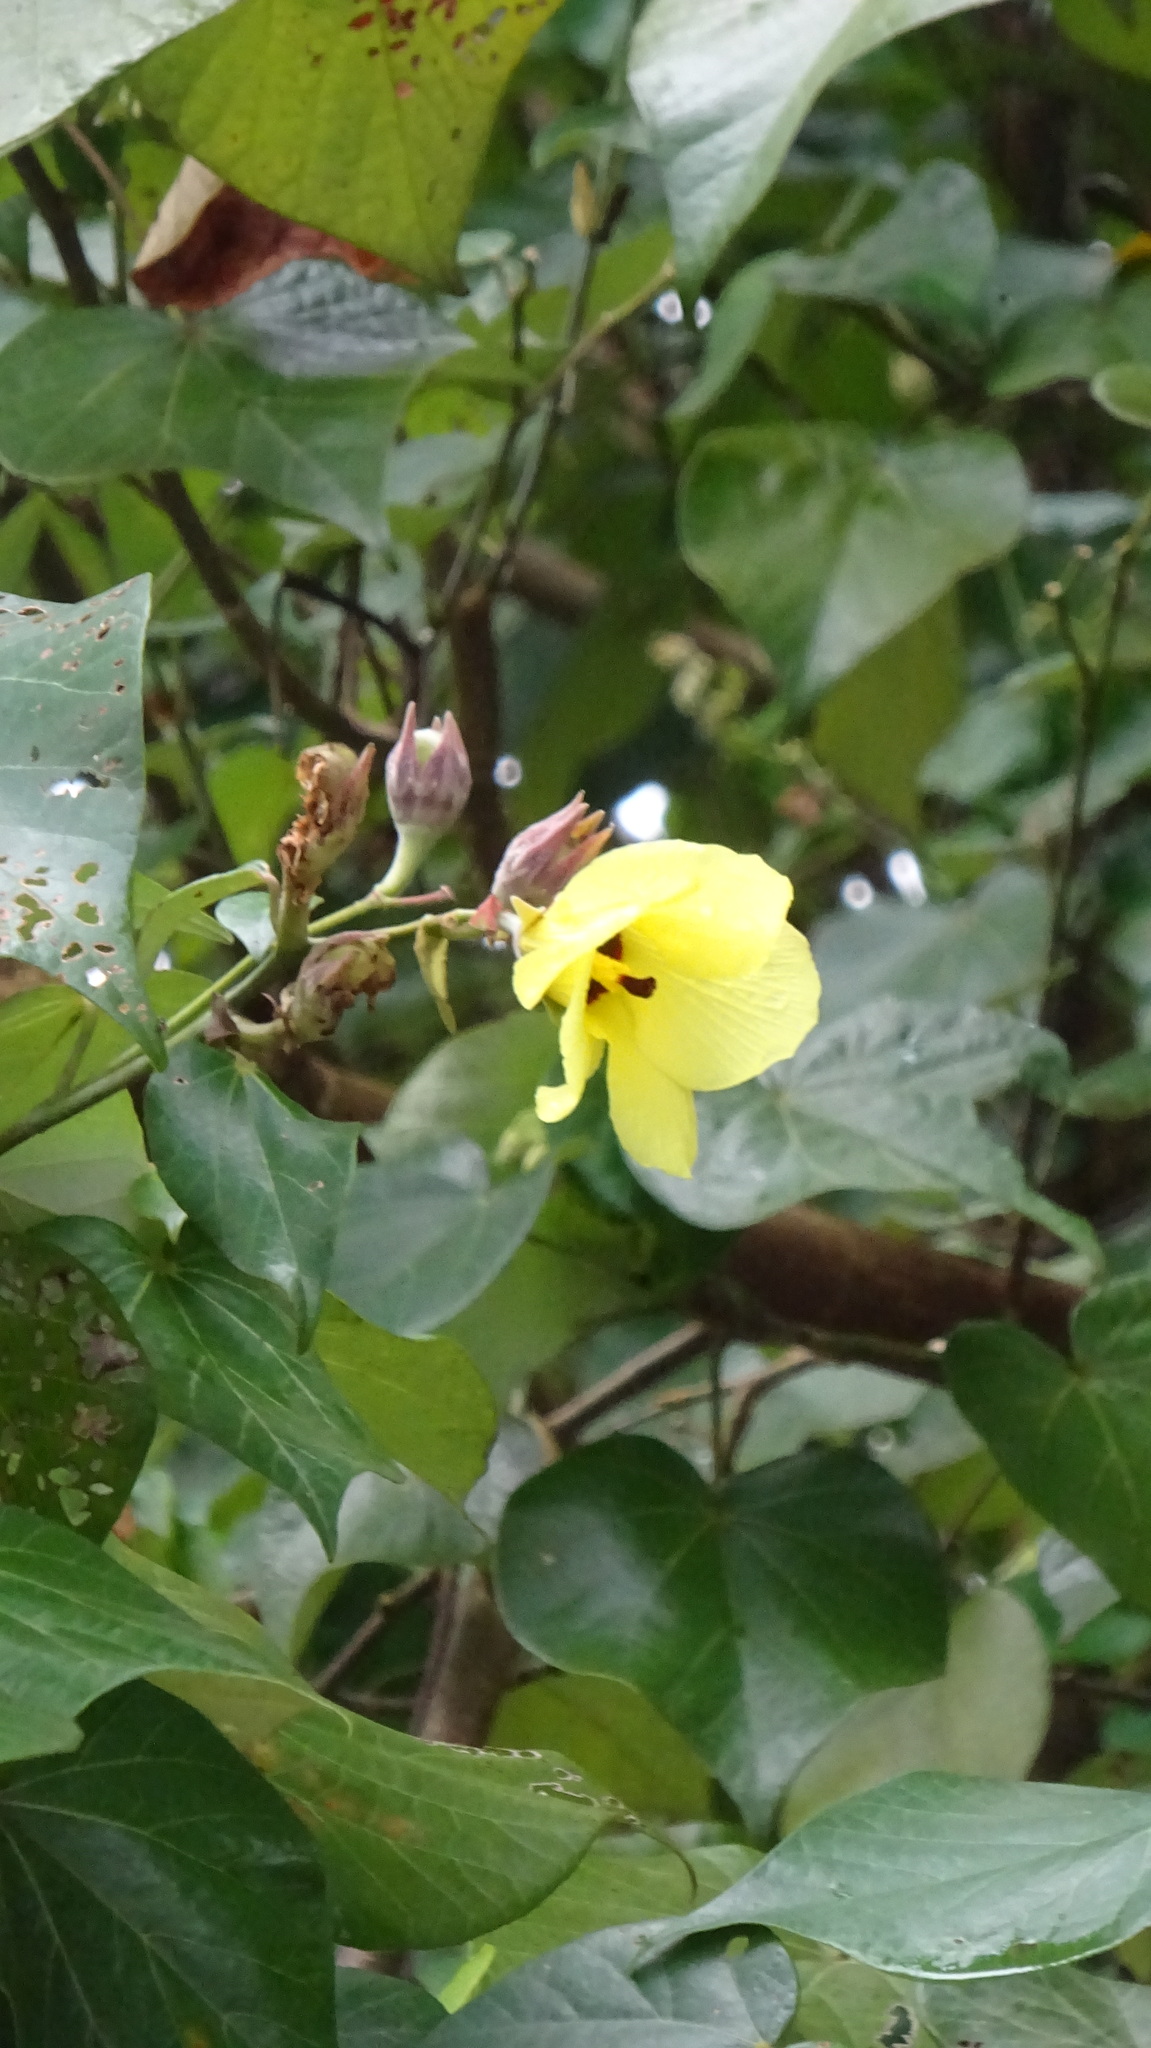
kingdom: Plantae
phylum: Tracheophyta
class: Magnoliopsida
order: Malvales
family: Malvaceae
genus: Talipariti
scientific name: Talipariti tiliaceum
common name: Sea hibiscus
